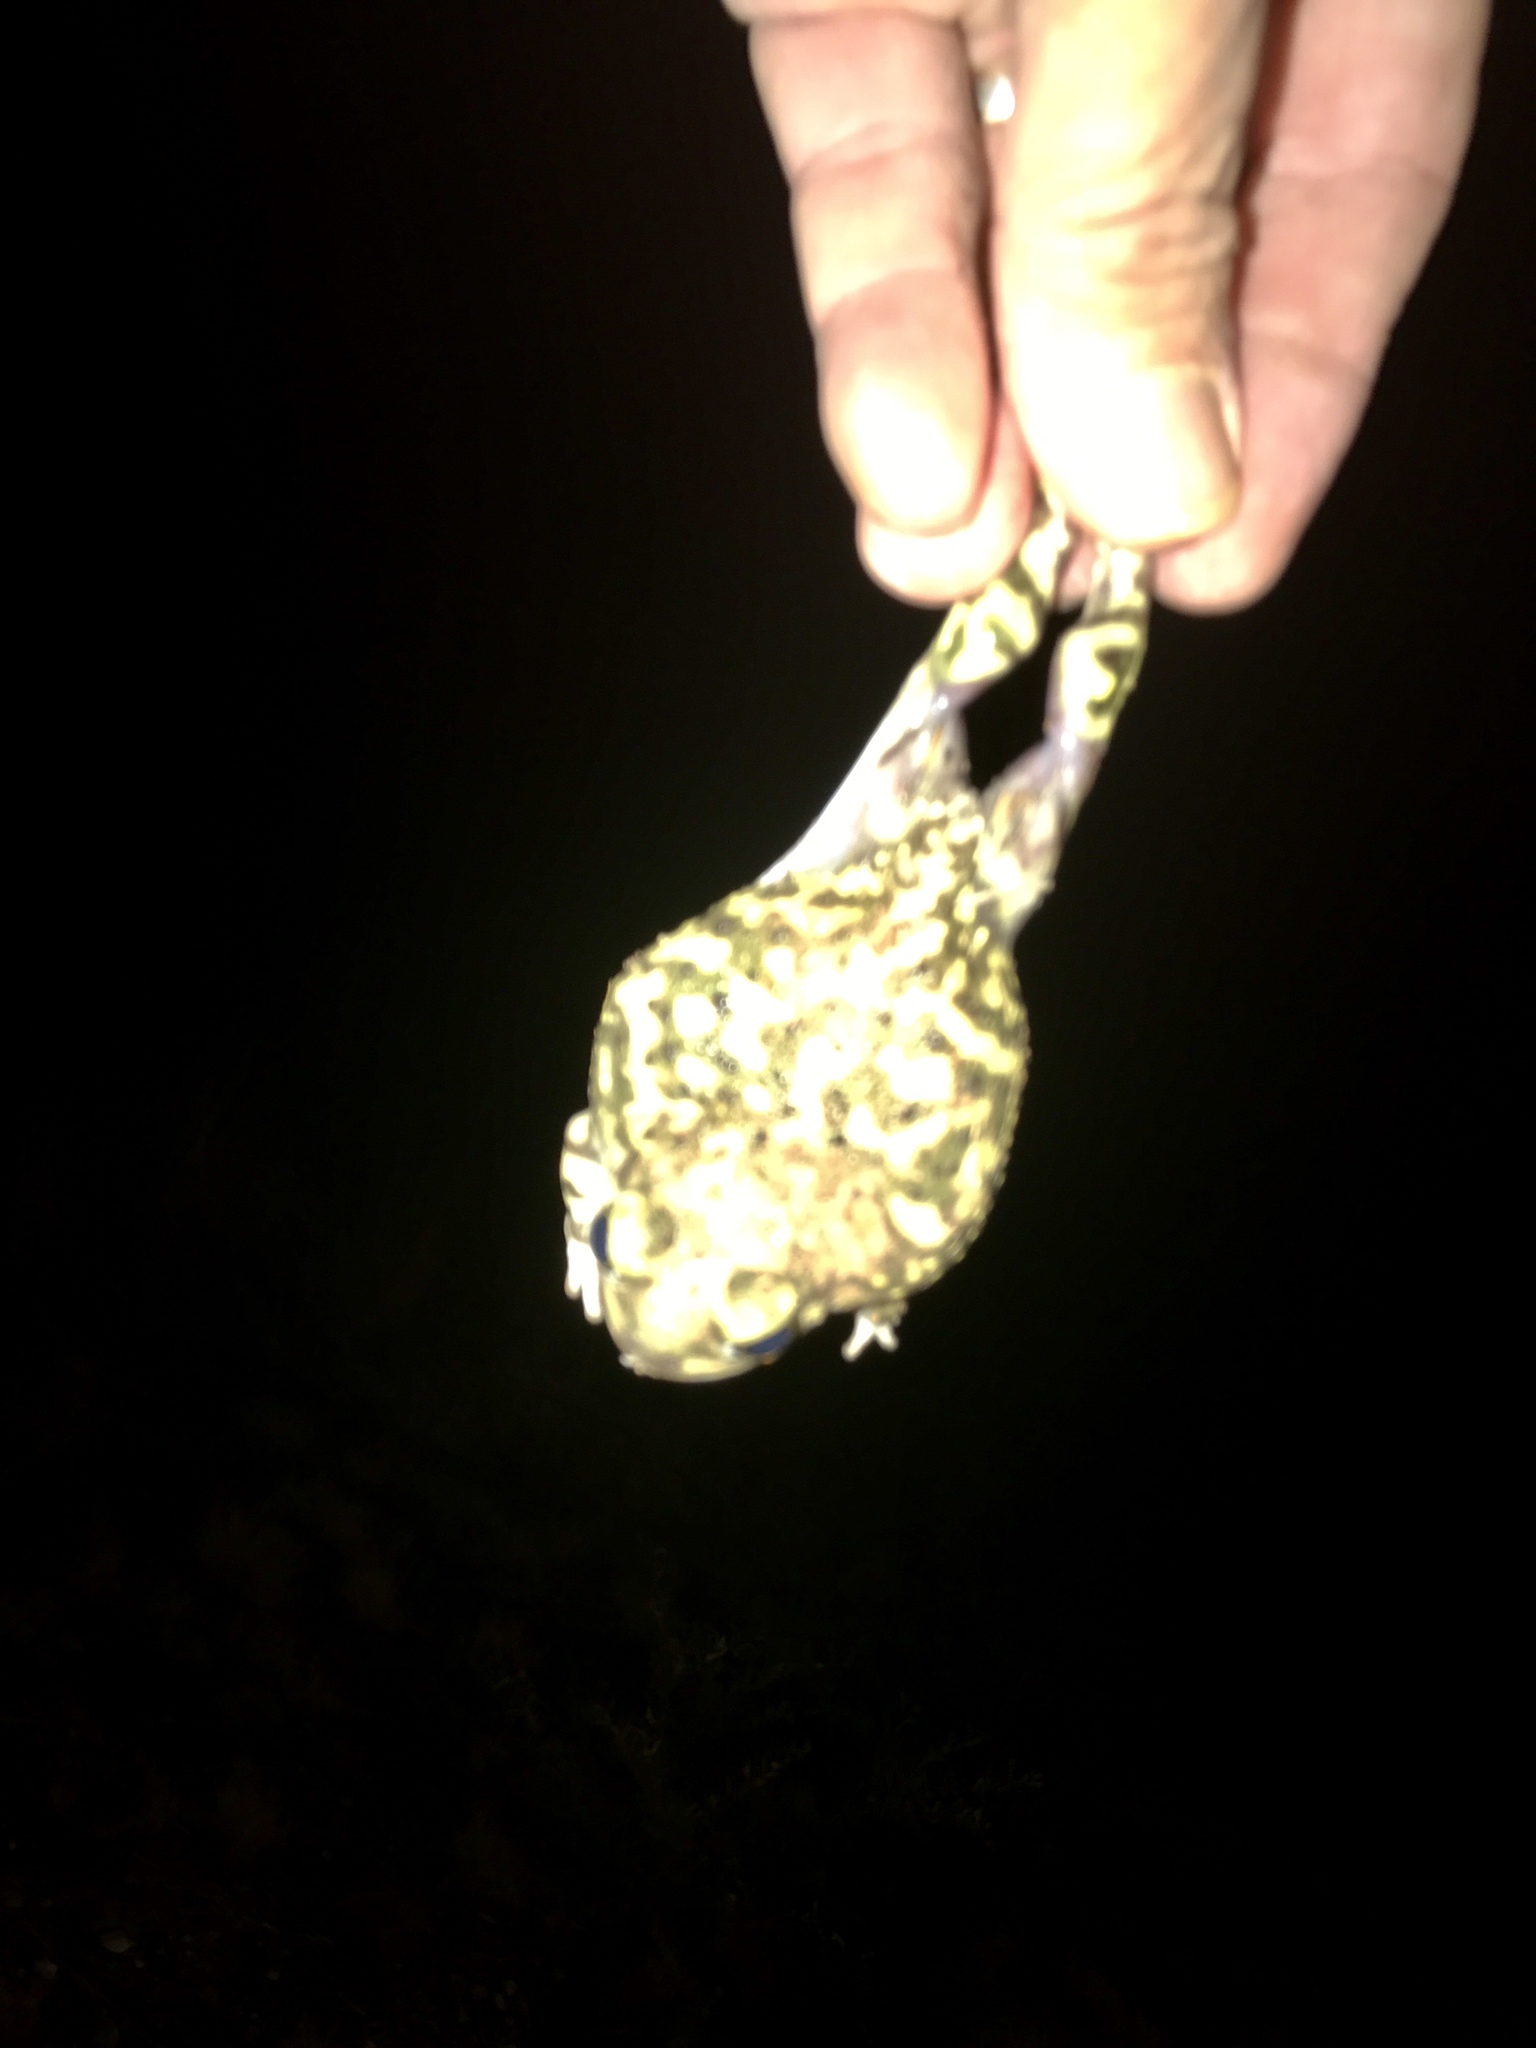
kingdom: Animalia
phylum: Chordata
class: Amphibia
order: Anura
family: Scaphiopodidae
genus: Scaphiopus
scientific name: Scaphiopus couchii
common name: Couch's spadefoot toad
